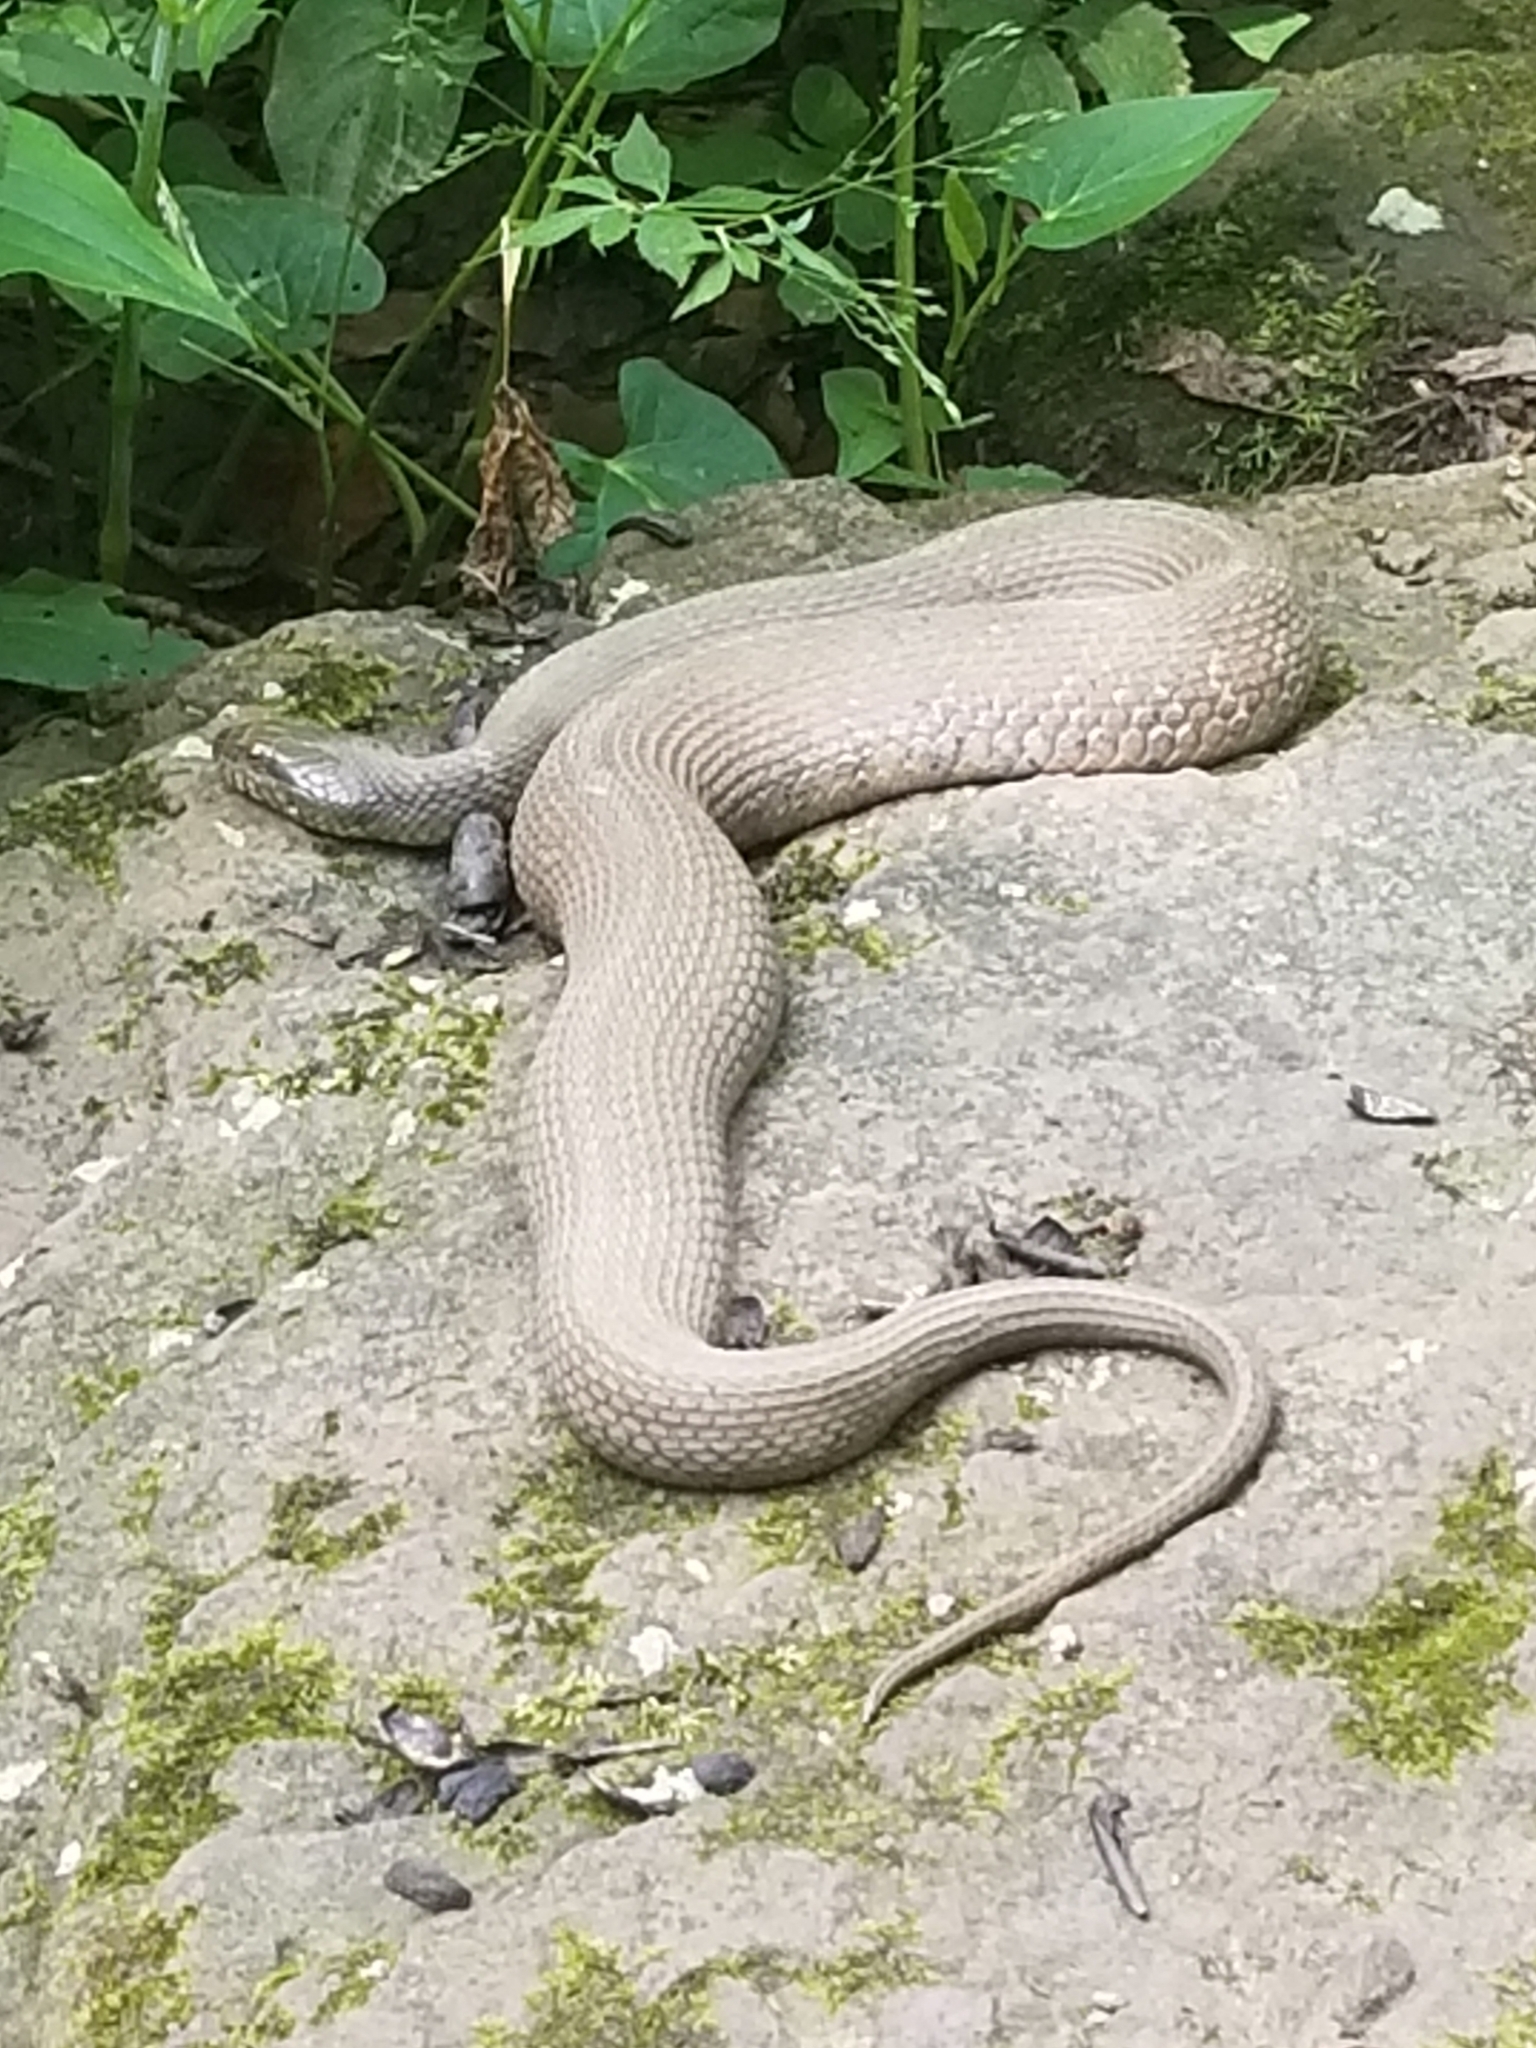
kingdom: Animalia
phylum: Chordata
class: Squamata
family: Colubridae
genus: Nerodia
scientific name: Nerodia sipedon
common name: Northern water snake
